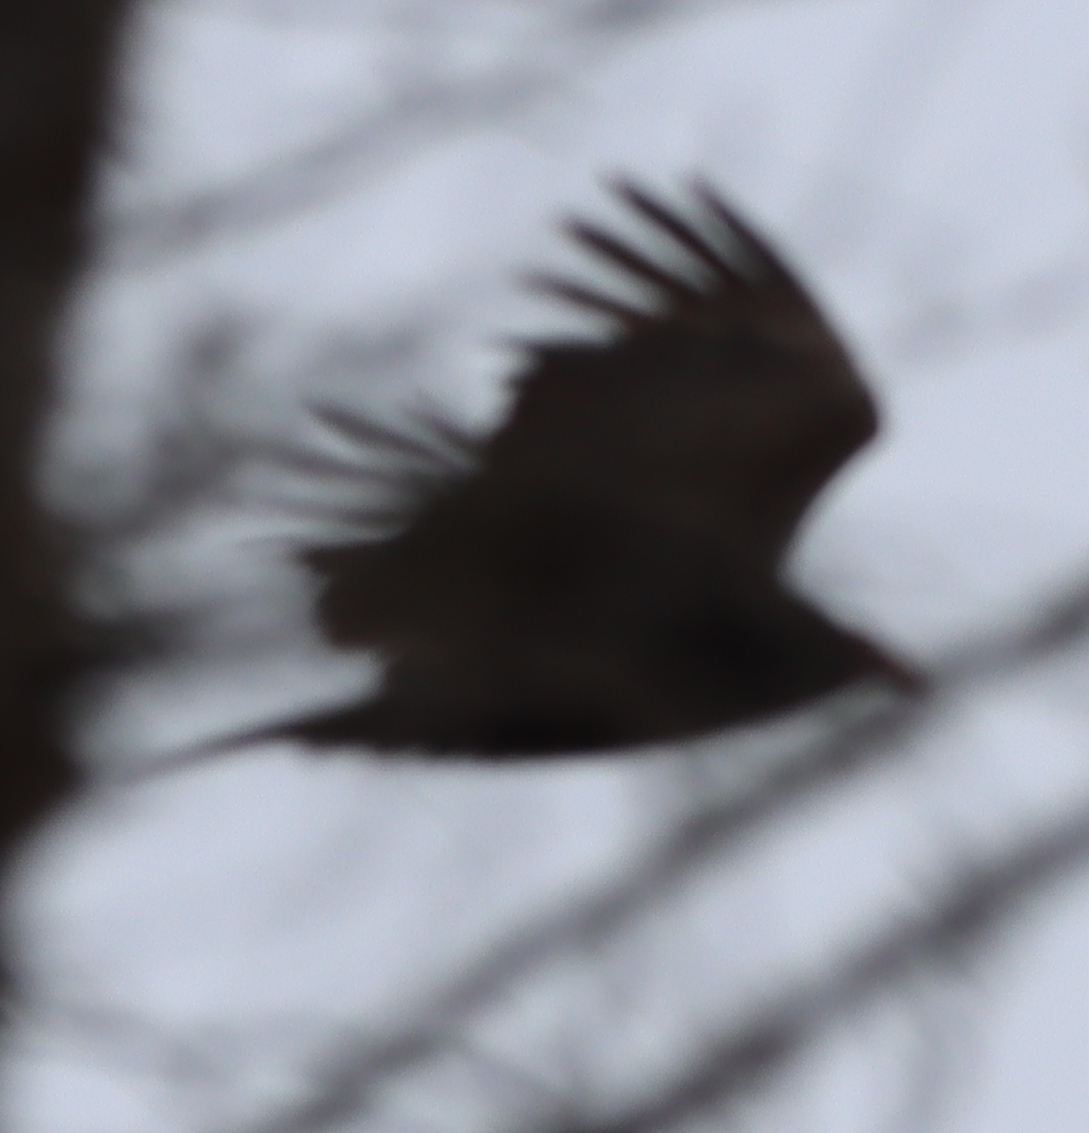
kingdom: Animalia
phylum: Chordata
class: Aves
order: Passeriformes
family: Corvidae
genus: Corvus
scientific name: Corvus corax
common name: Common raven
